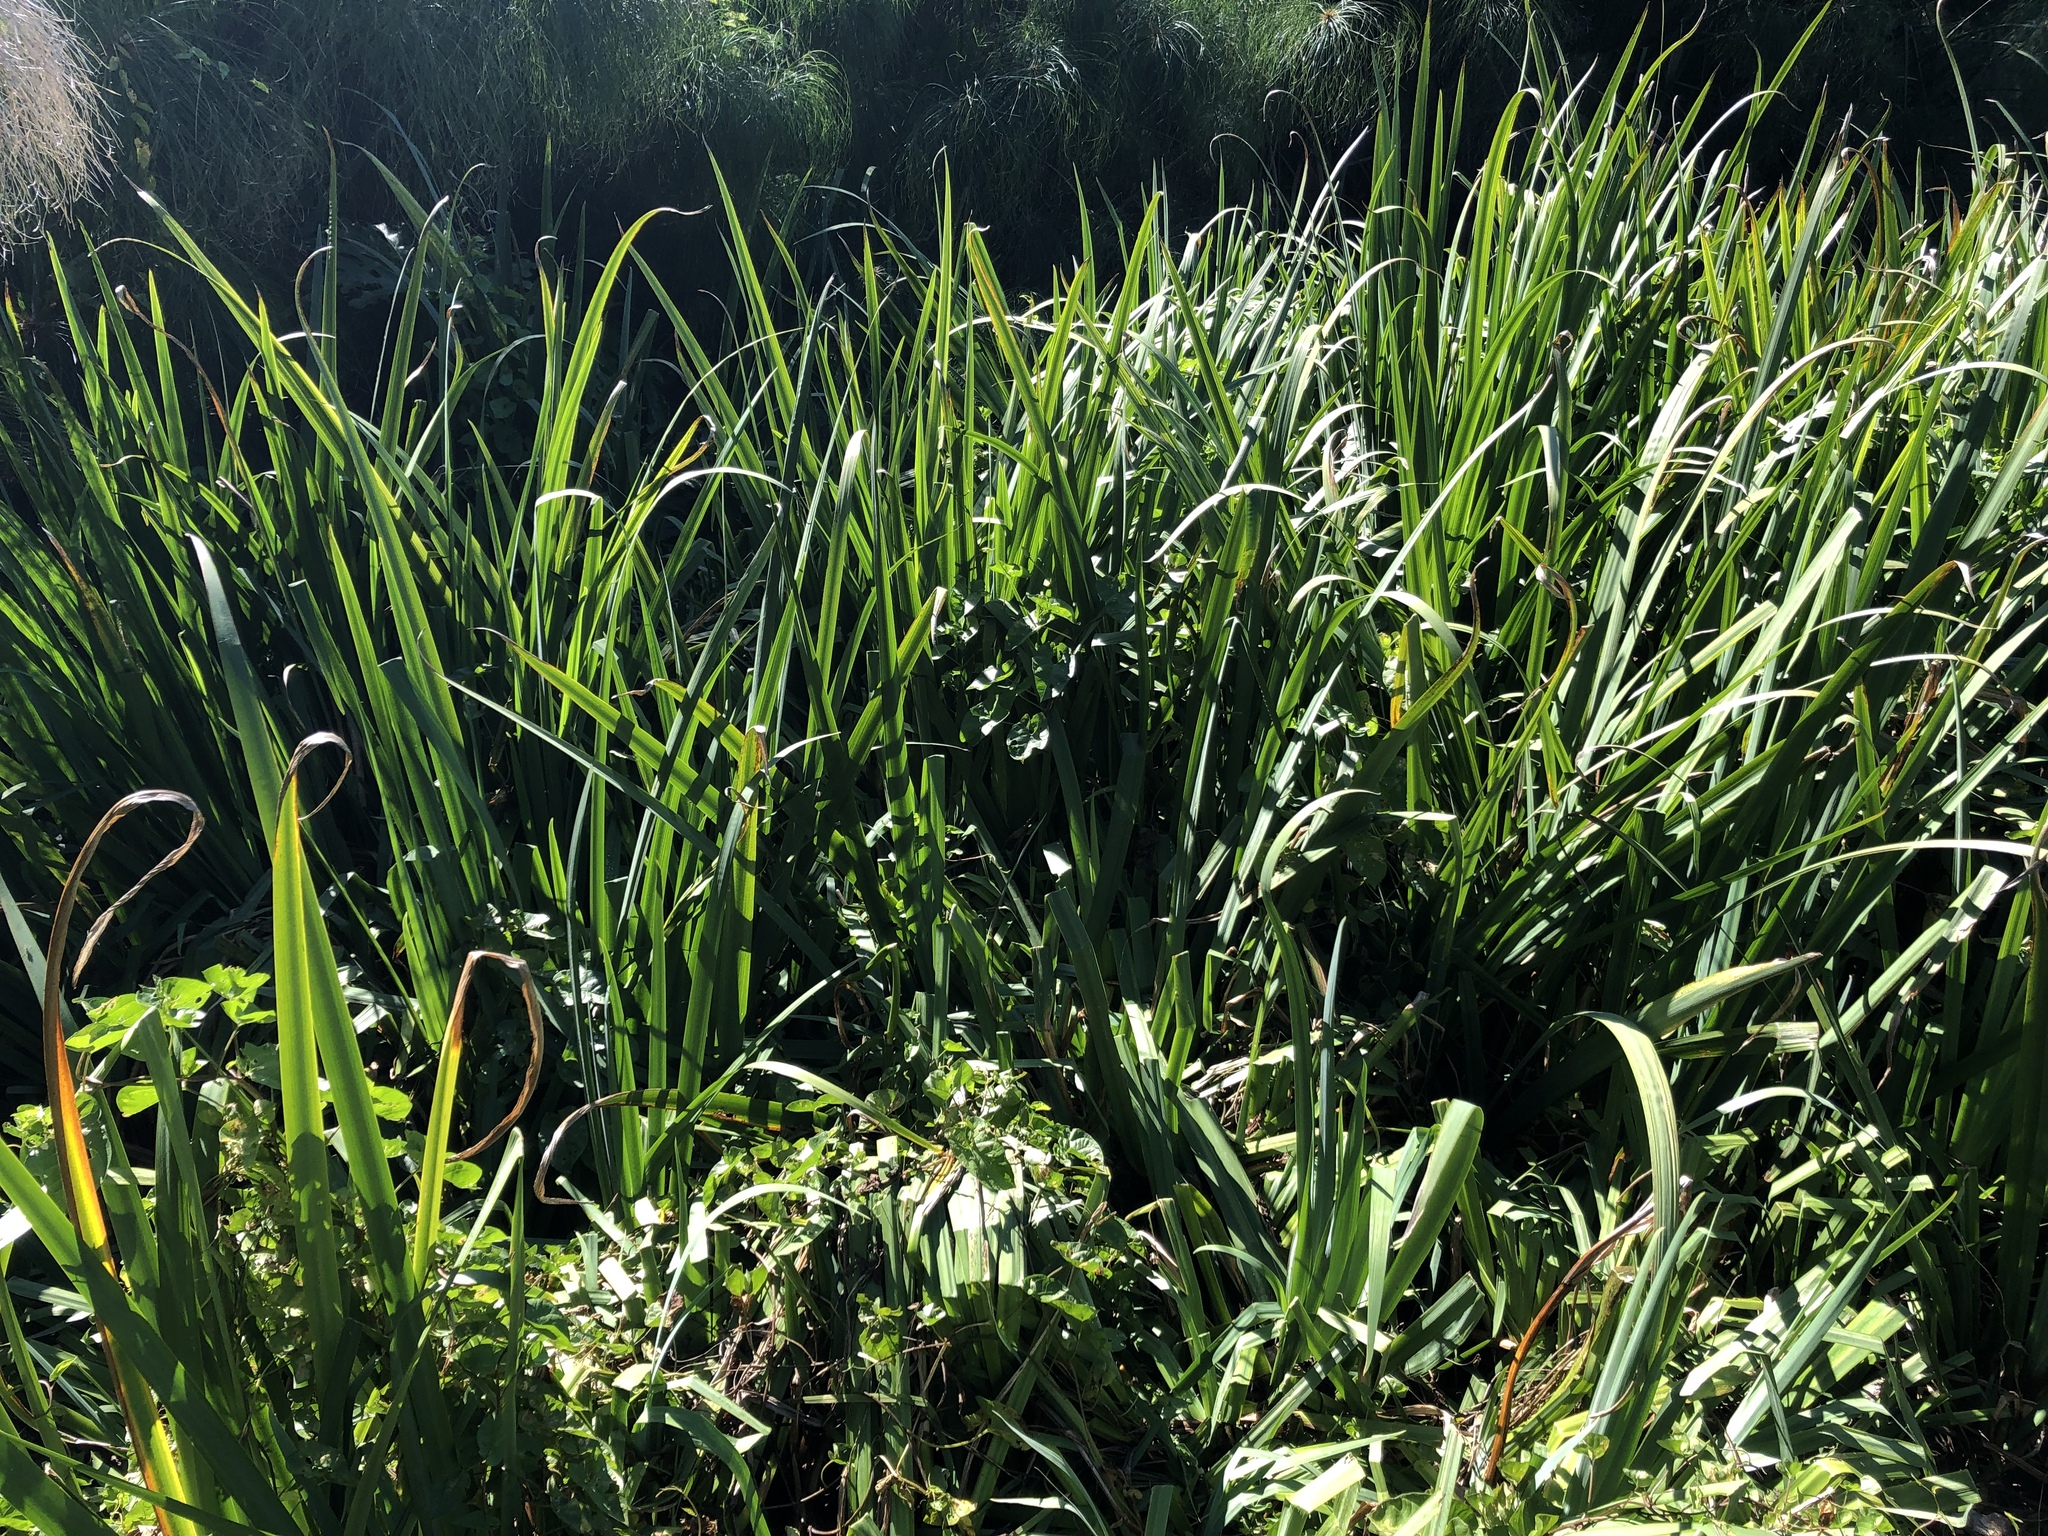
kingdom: Plantae
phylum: Tracheophyta
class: Liliopsida
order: Asparagales
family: Iridaceae
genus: Iris
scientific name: Iris pseudacorus
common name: Yellow flag
